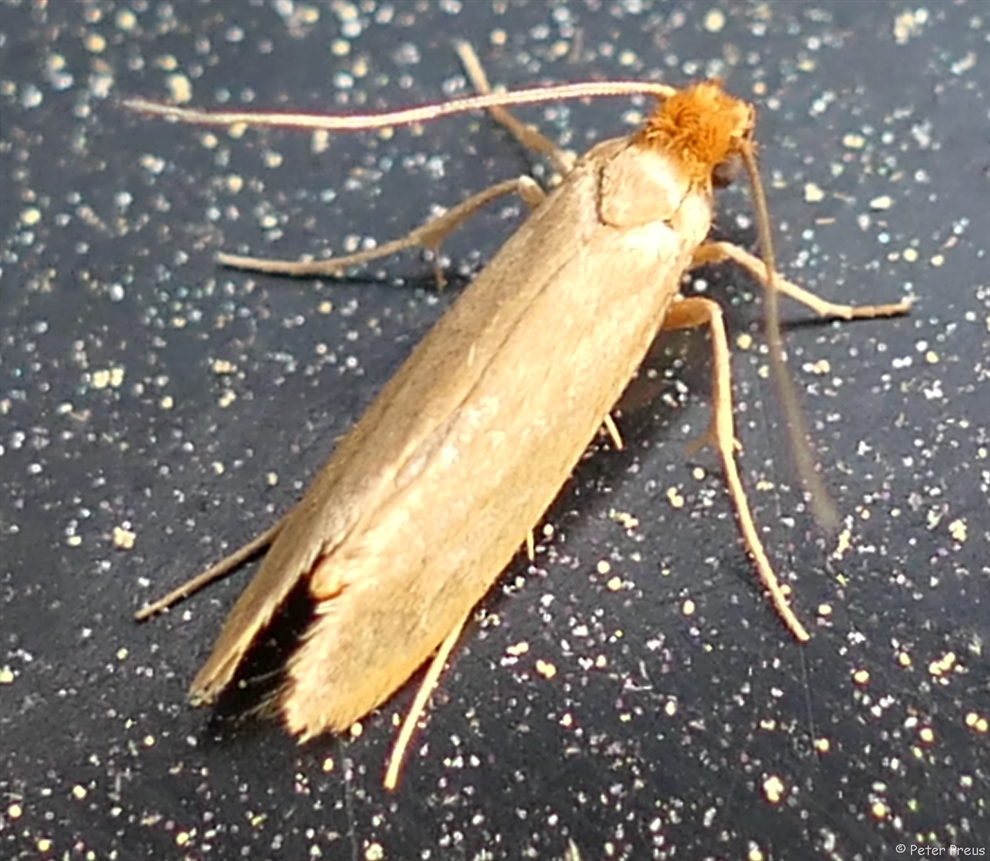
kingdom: Animalia
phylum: Arthropoda
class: Insecta
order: Lepidoptera
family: Tineidae
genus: Tineola
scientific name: Tineola bisselliella
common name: Webbing clothes moth
